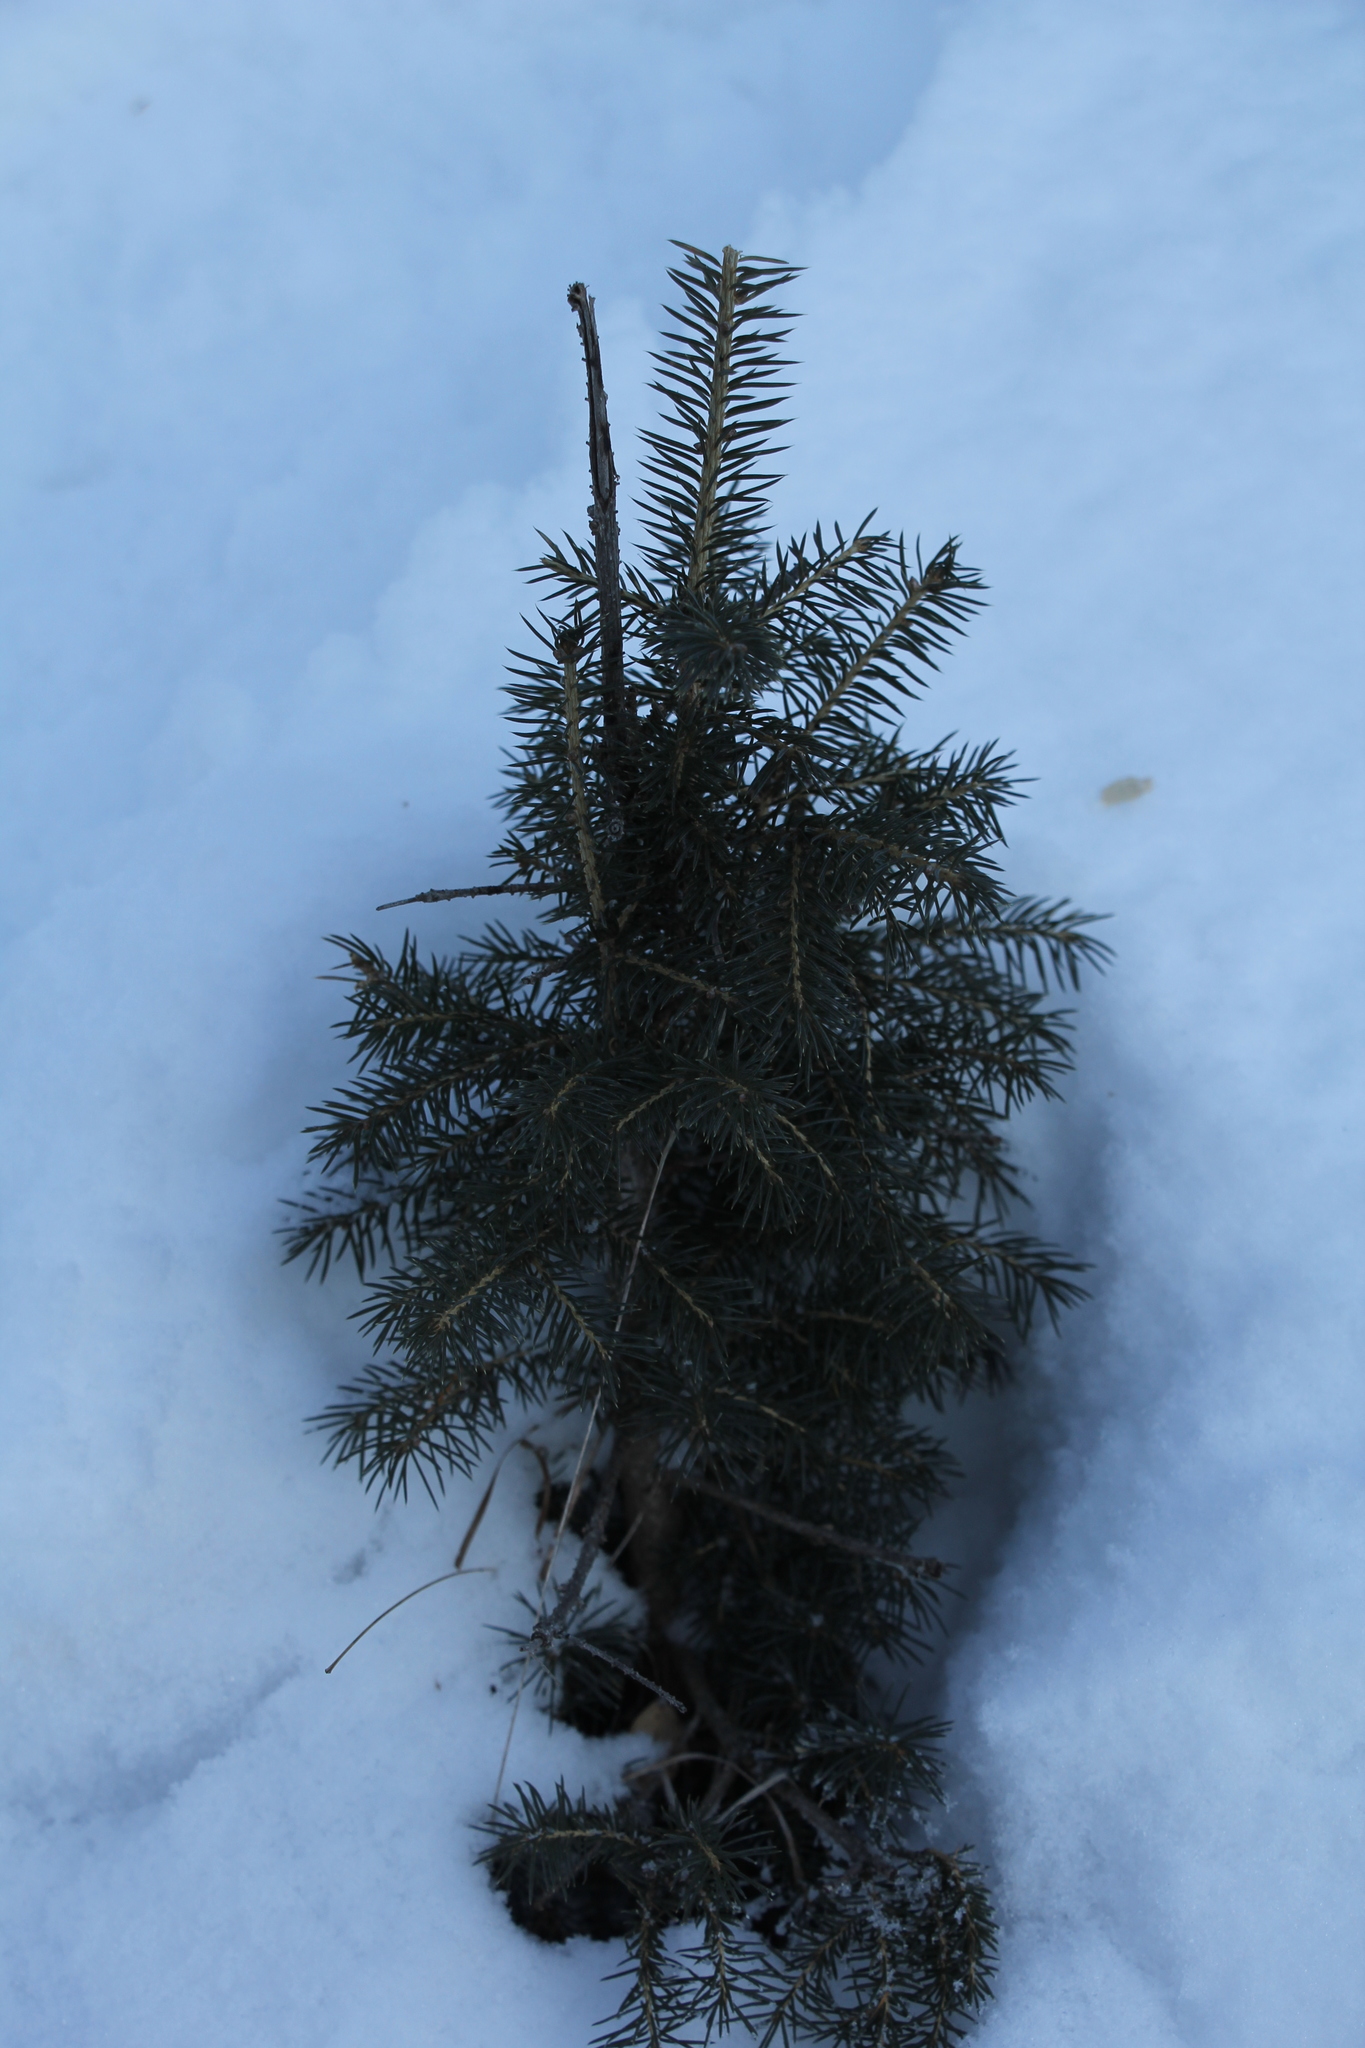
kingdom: Plantae
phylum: Tracheophyta
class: Pinopsida
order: Pinales
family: Pinaceae
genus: Picea
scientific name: Picea obovata
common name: Siberian spruce
